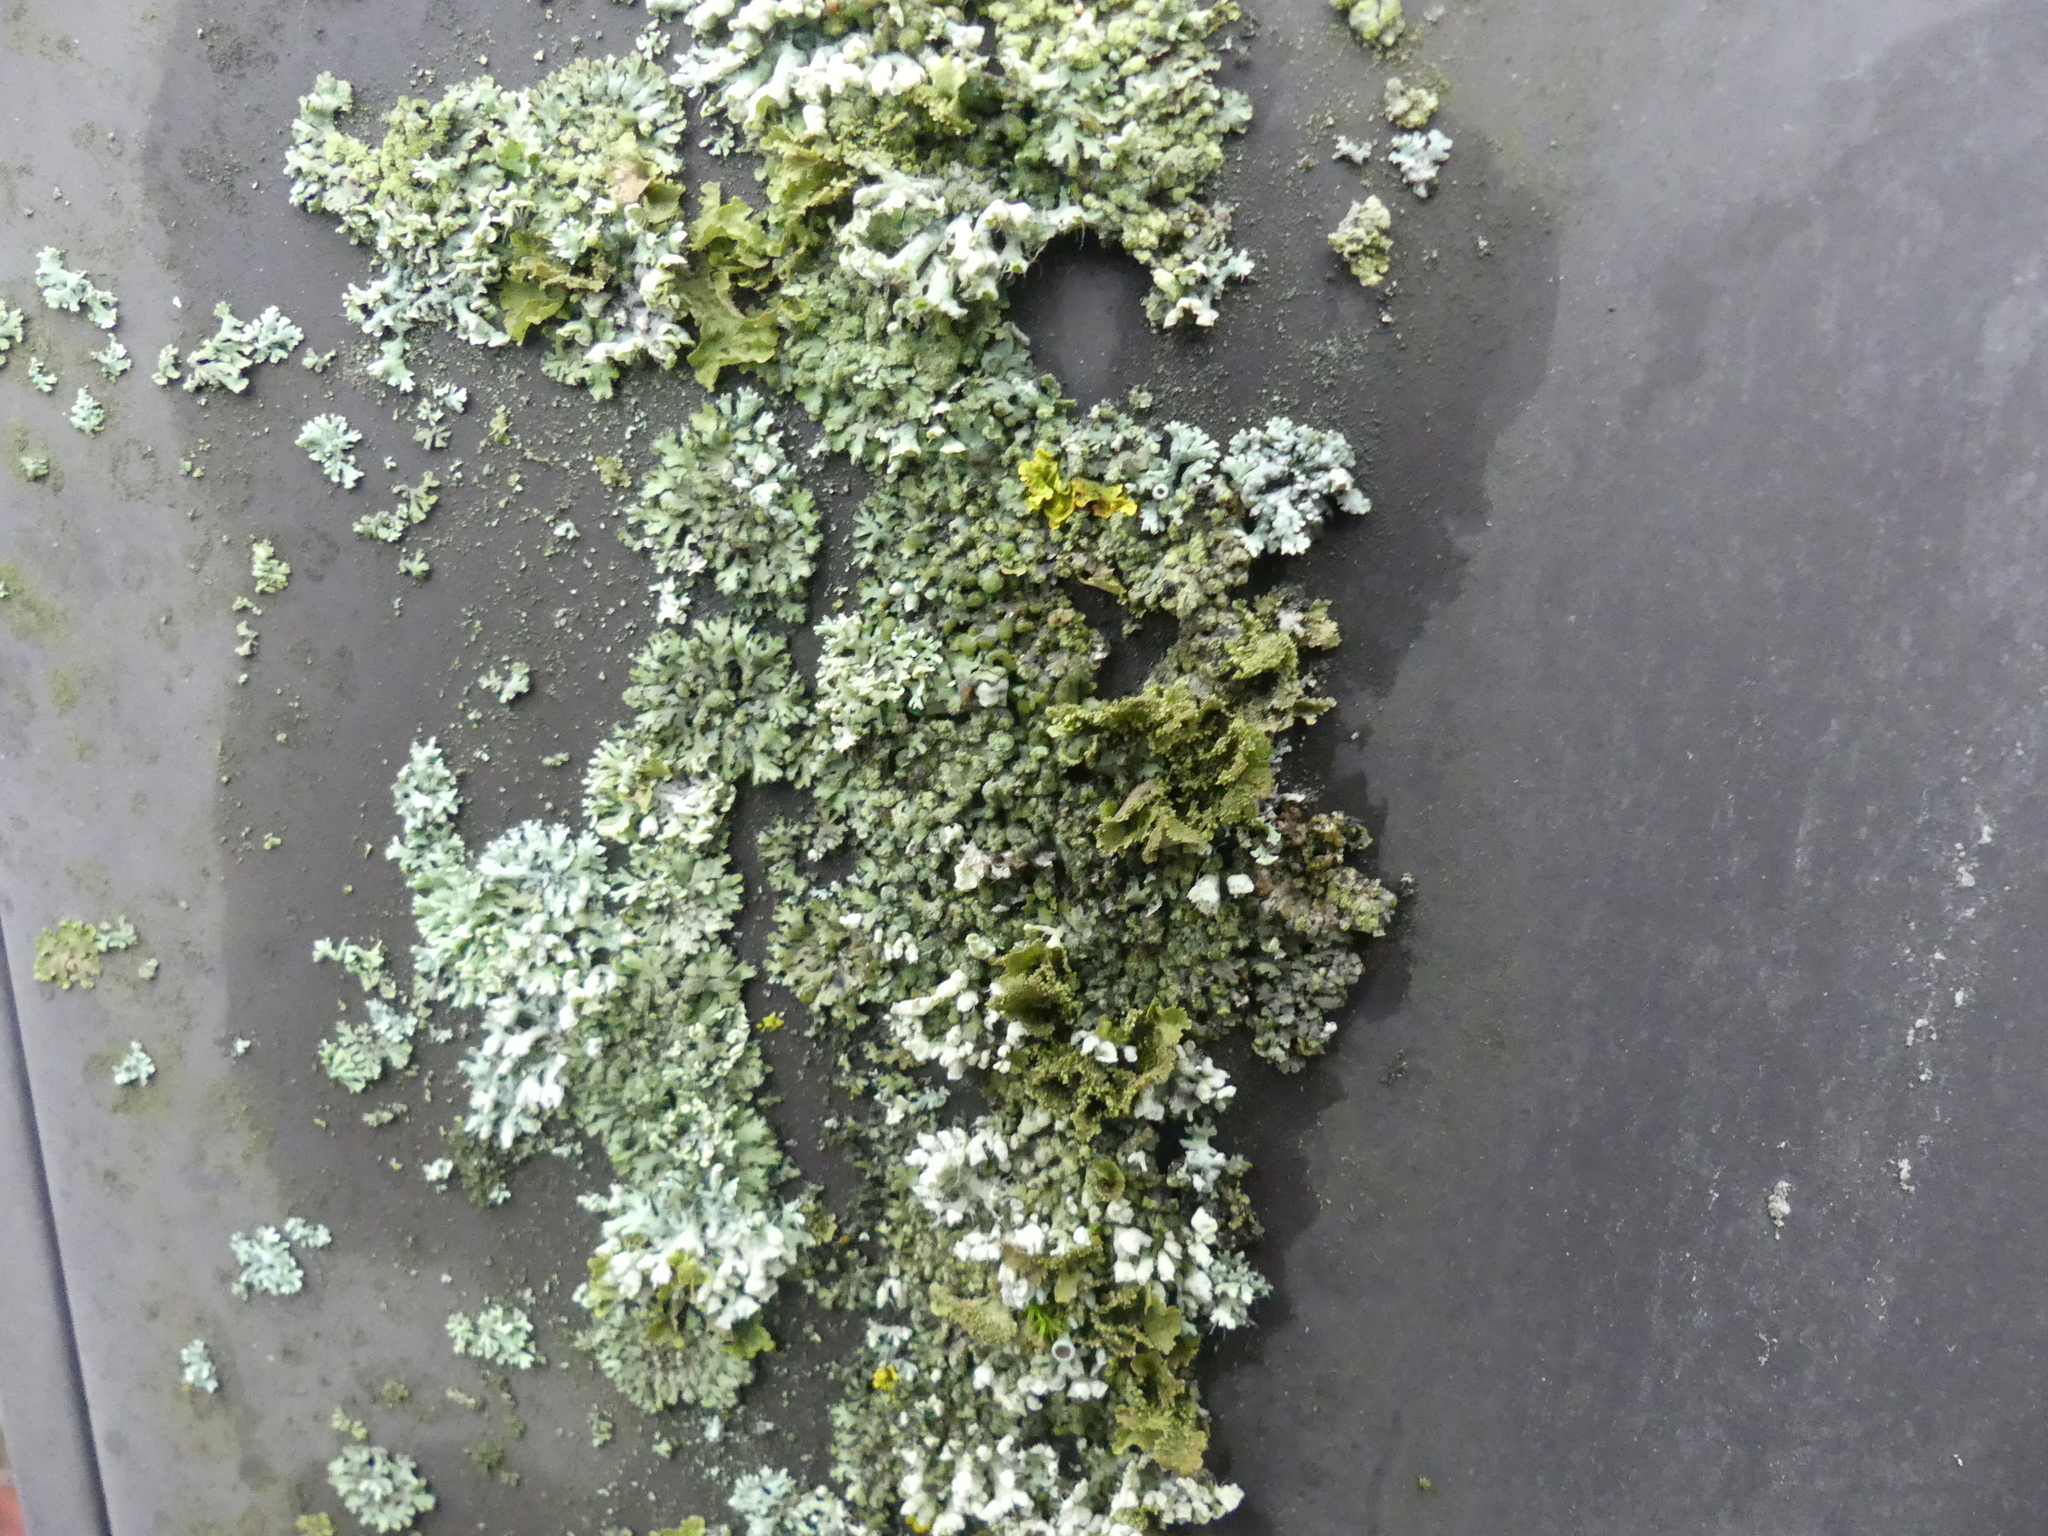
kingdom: Fungi
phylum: Ascomycota
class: Lecanoromycetes
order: Caliciales
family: Physciaceae
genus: Physcia
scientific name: Physcia adscendens
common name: Hooded rosette lichen
